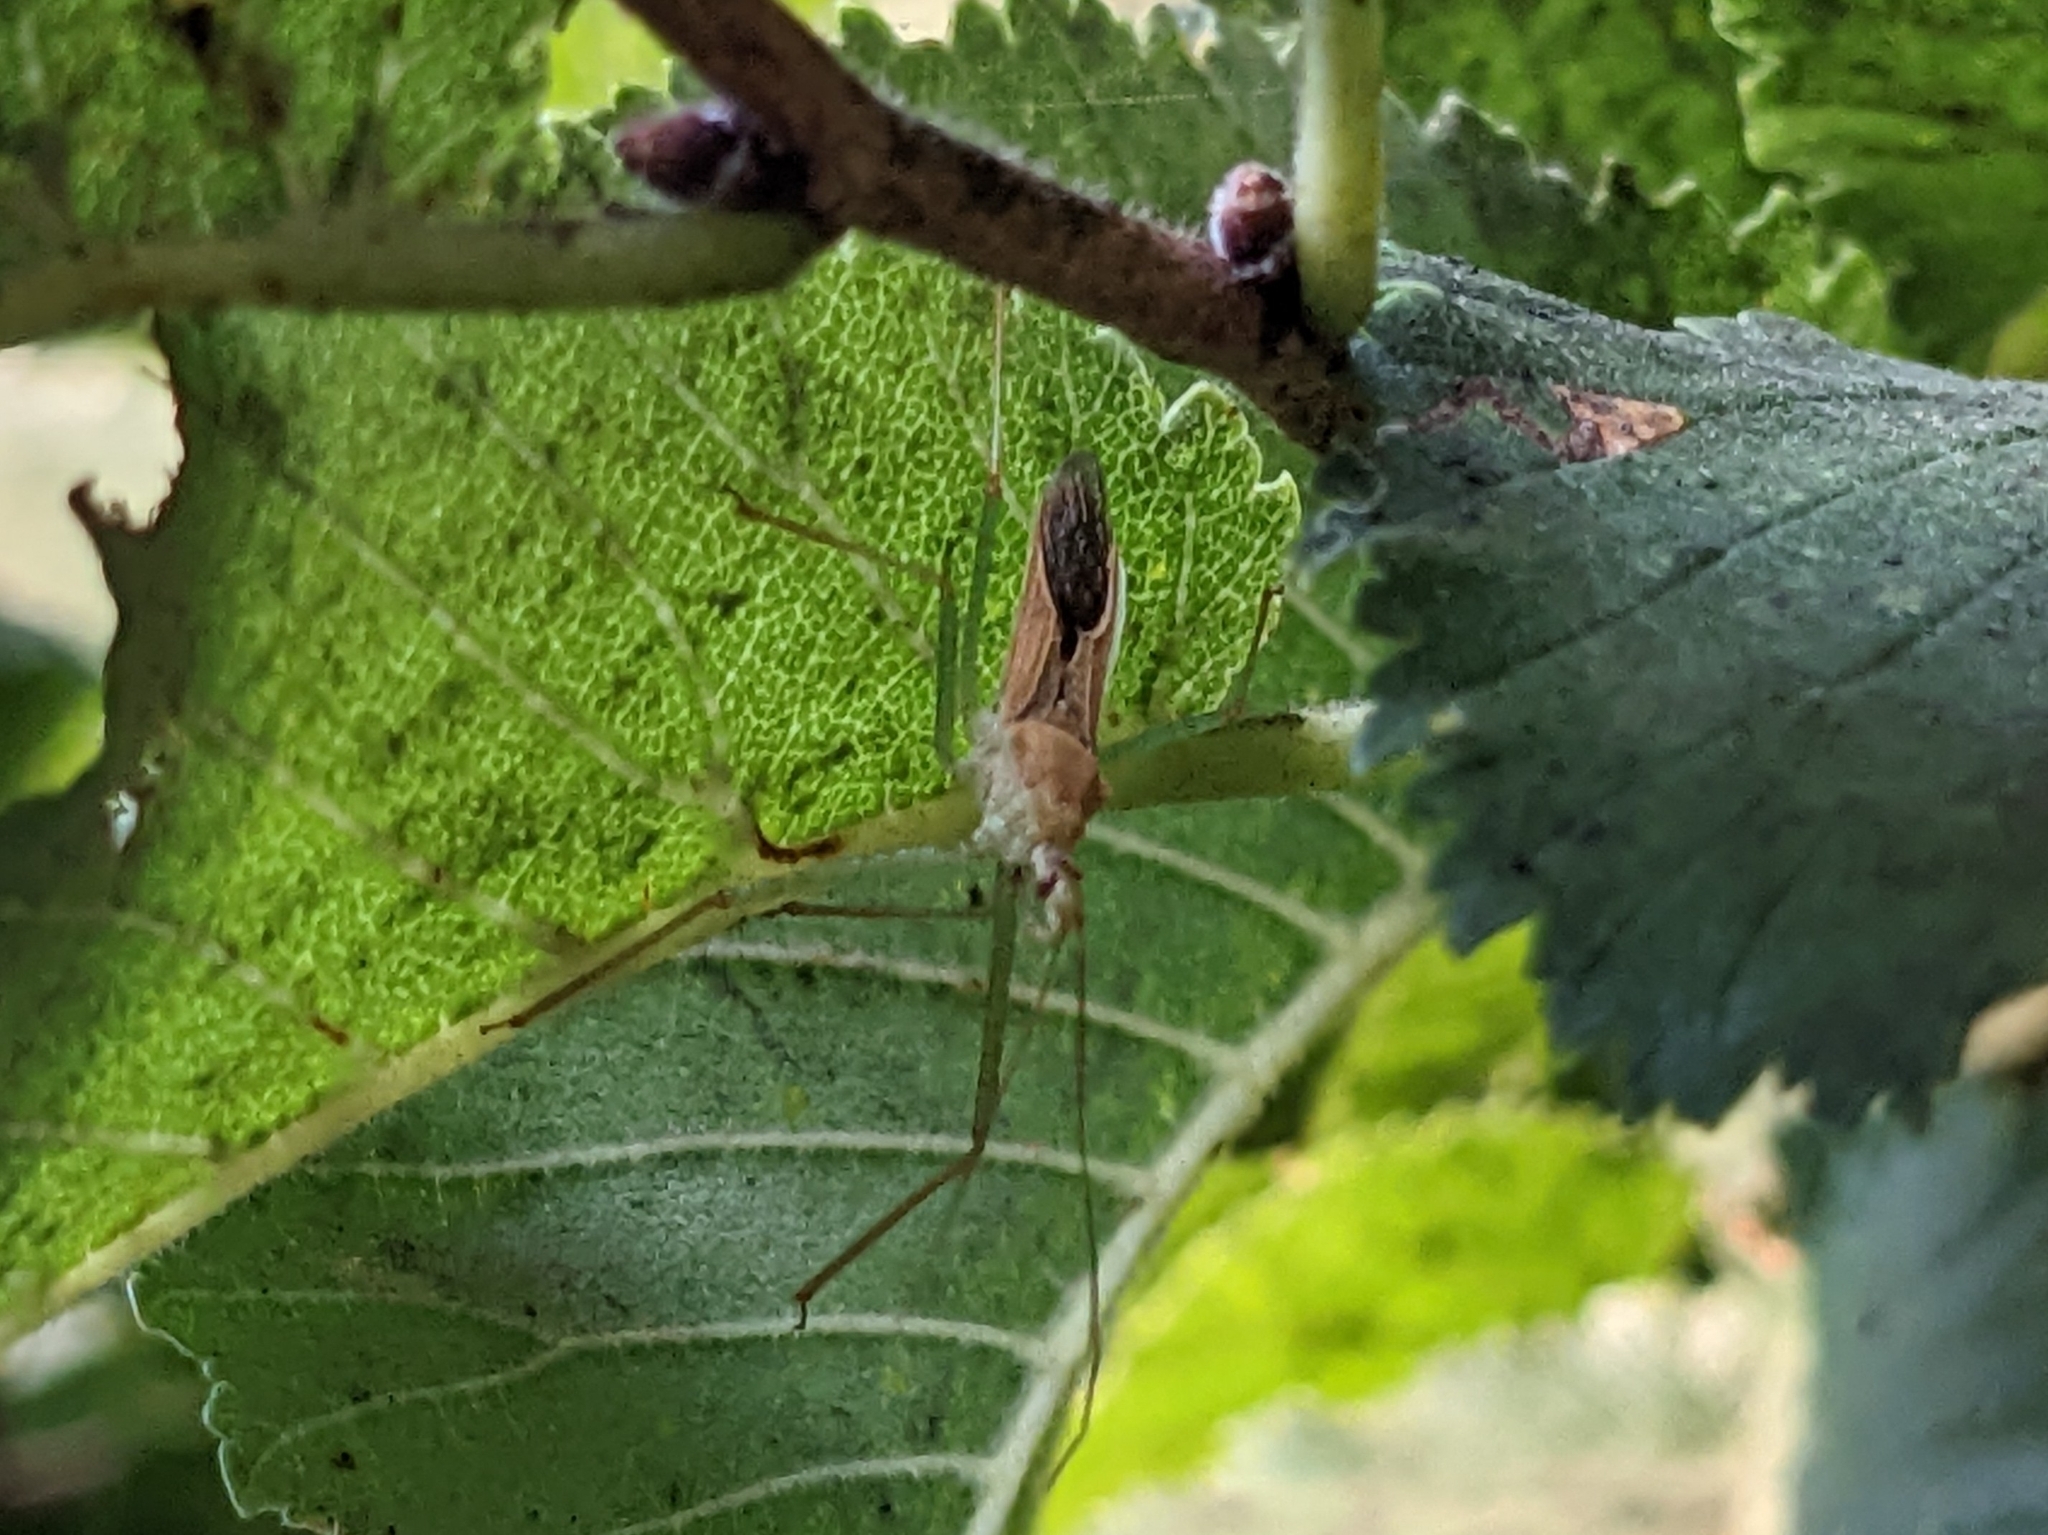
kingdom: Animalia
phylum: Arthropoda
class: Insecta
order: Hemiptera
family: Reduviidae
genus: Zelus
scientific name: Zelus renardii
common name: Assassin bug
